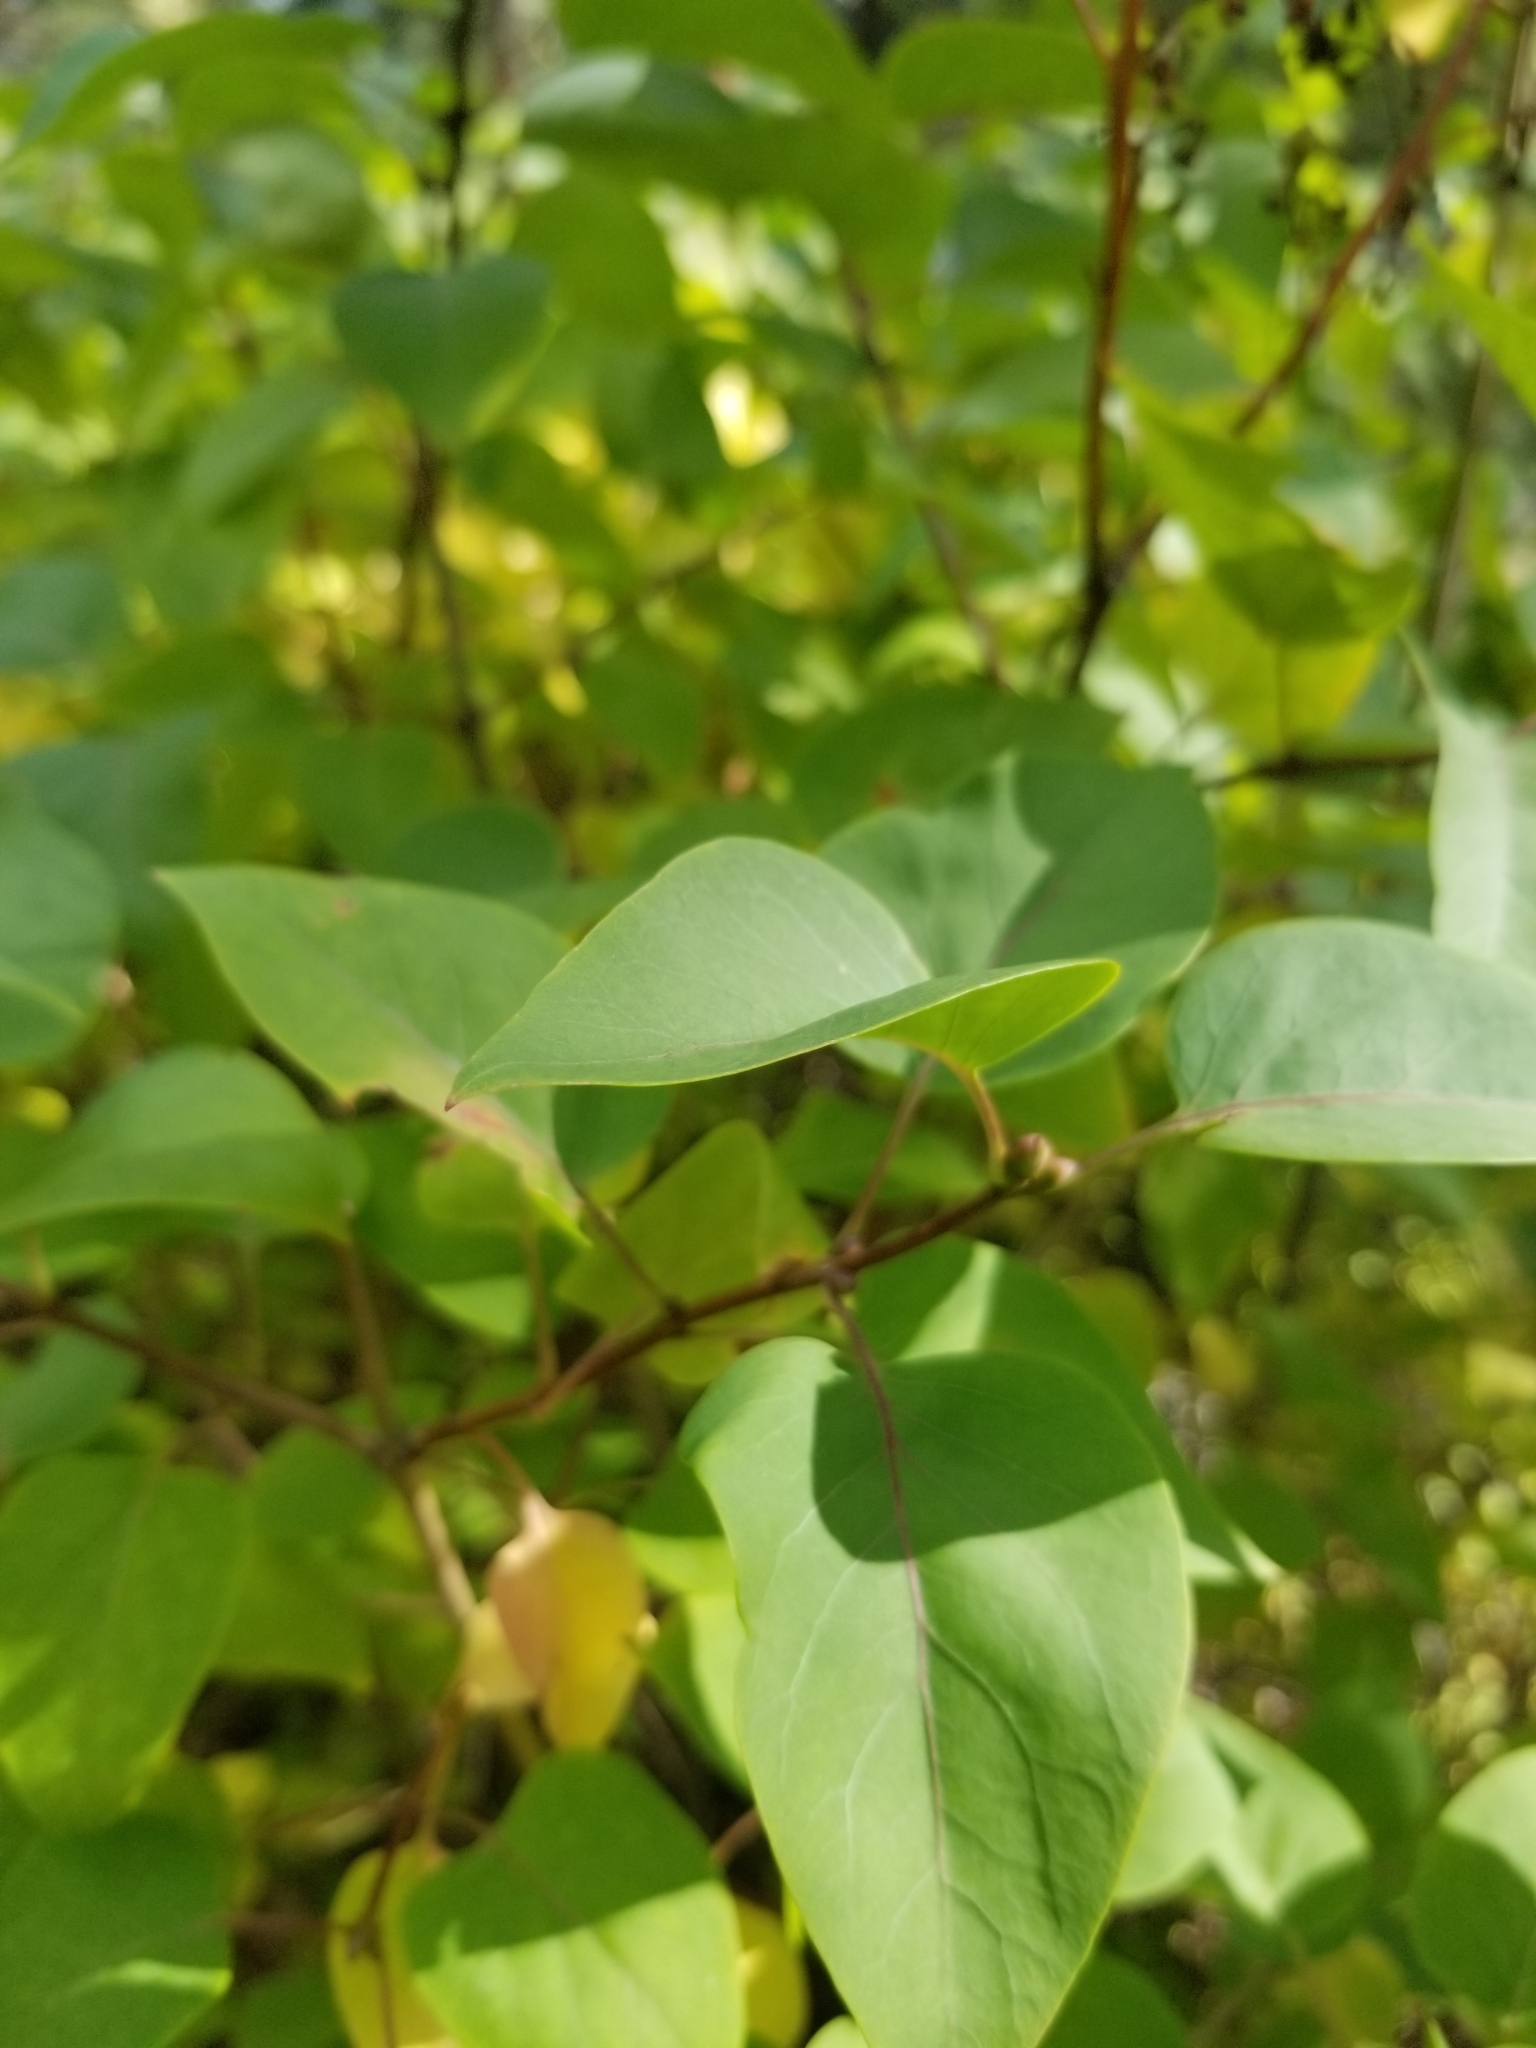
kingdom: Plantae
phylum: Tracheophyta
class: Magnoliopsida
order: Lamiales
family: Oleaceae
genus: Syringa
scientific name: Syringa vulgaris
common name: Common lilac
